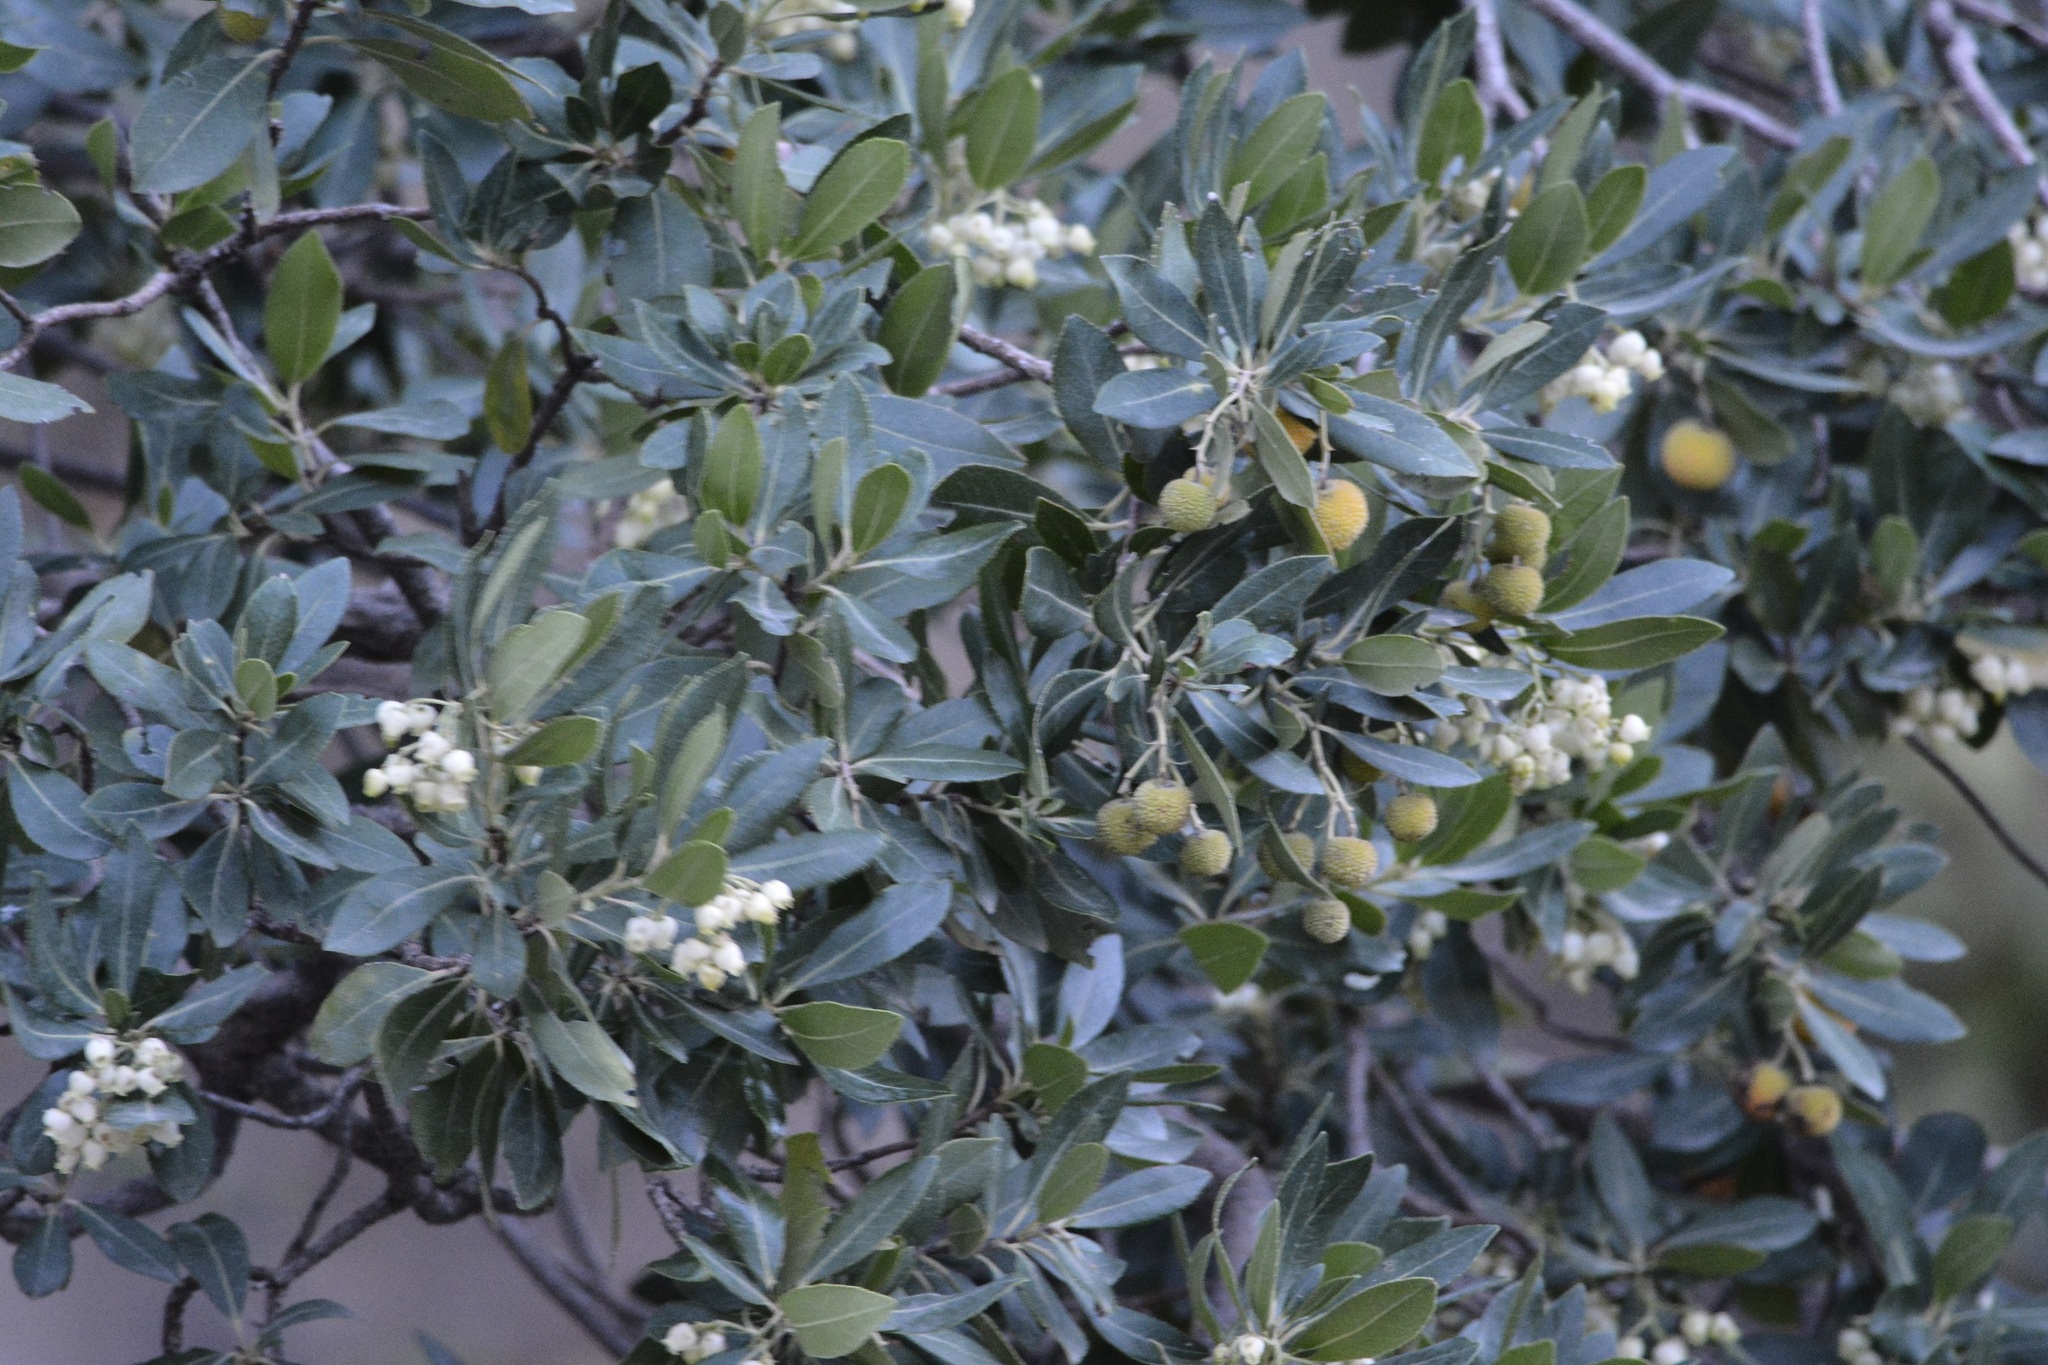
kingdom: Plantae
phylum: Tracheophyta
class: Magnoliopsida
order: Ericales
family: Ericaceae
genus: Arbutus
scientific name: Arbutus unedo
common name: Strawberry-tree
